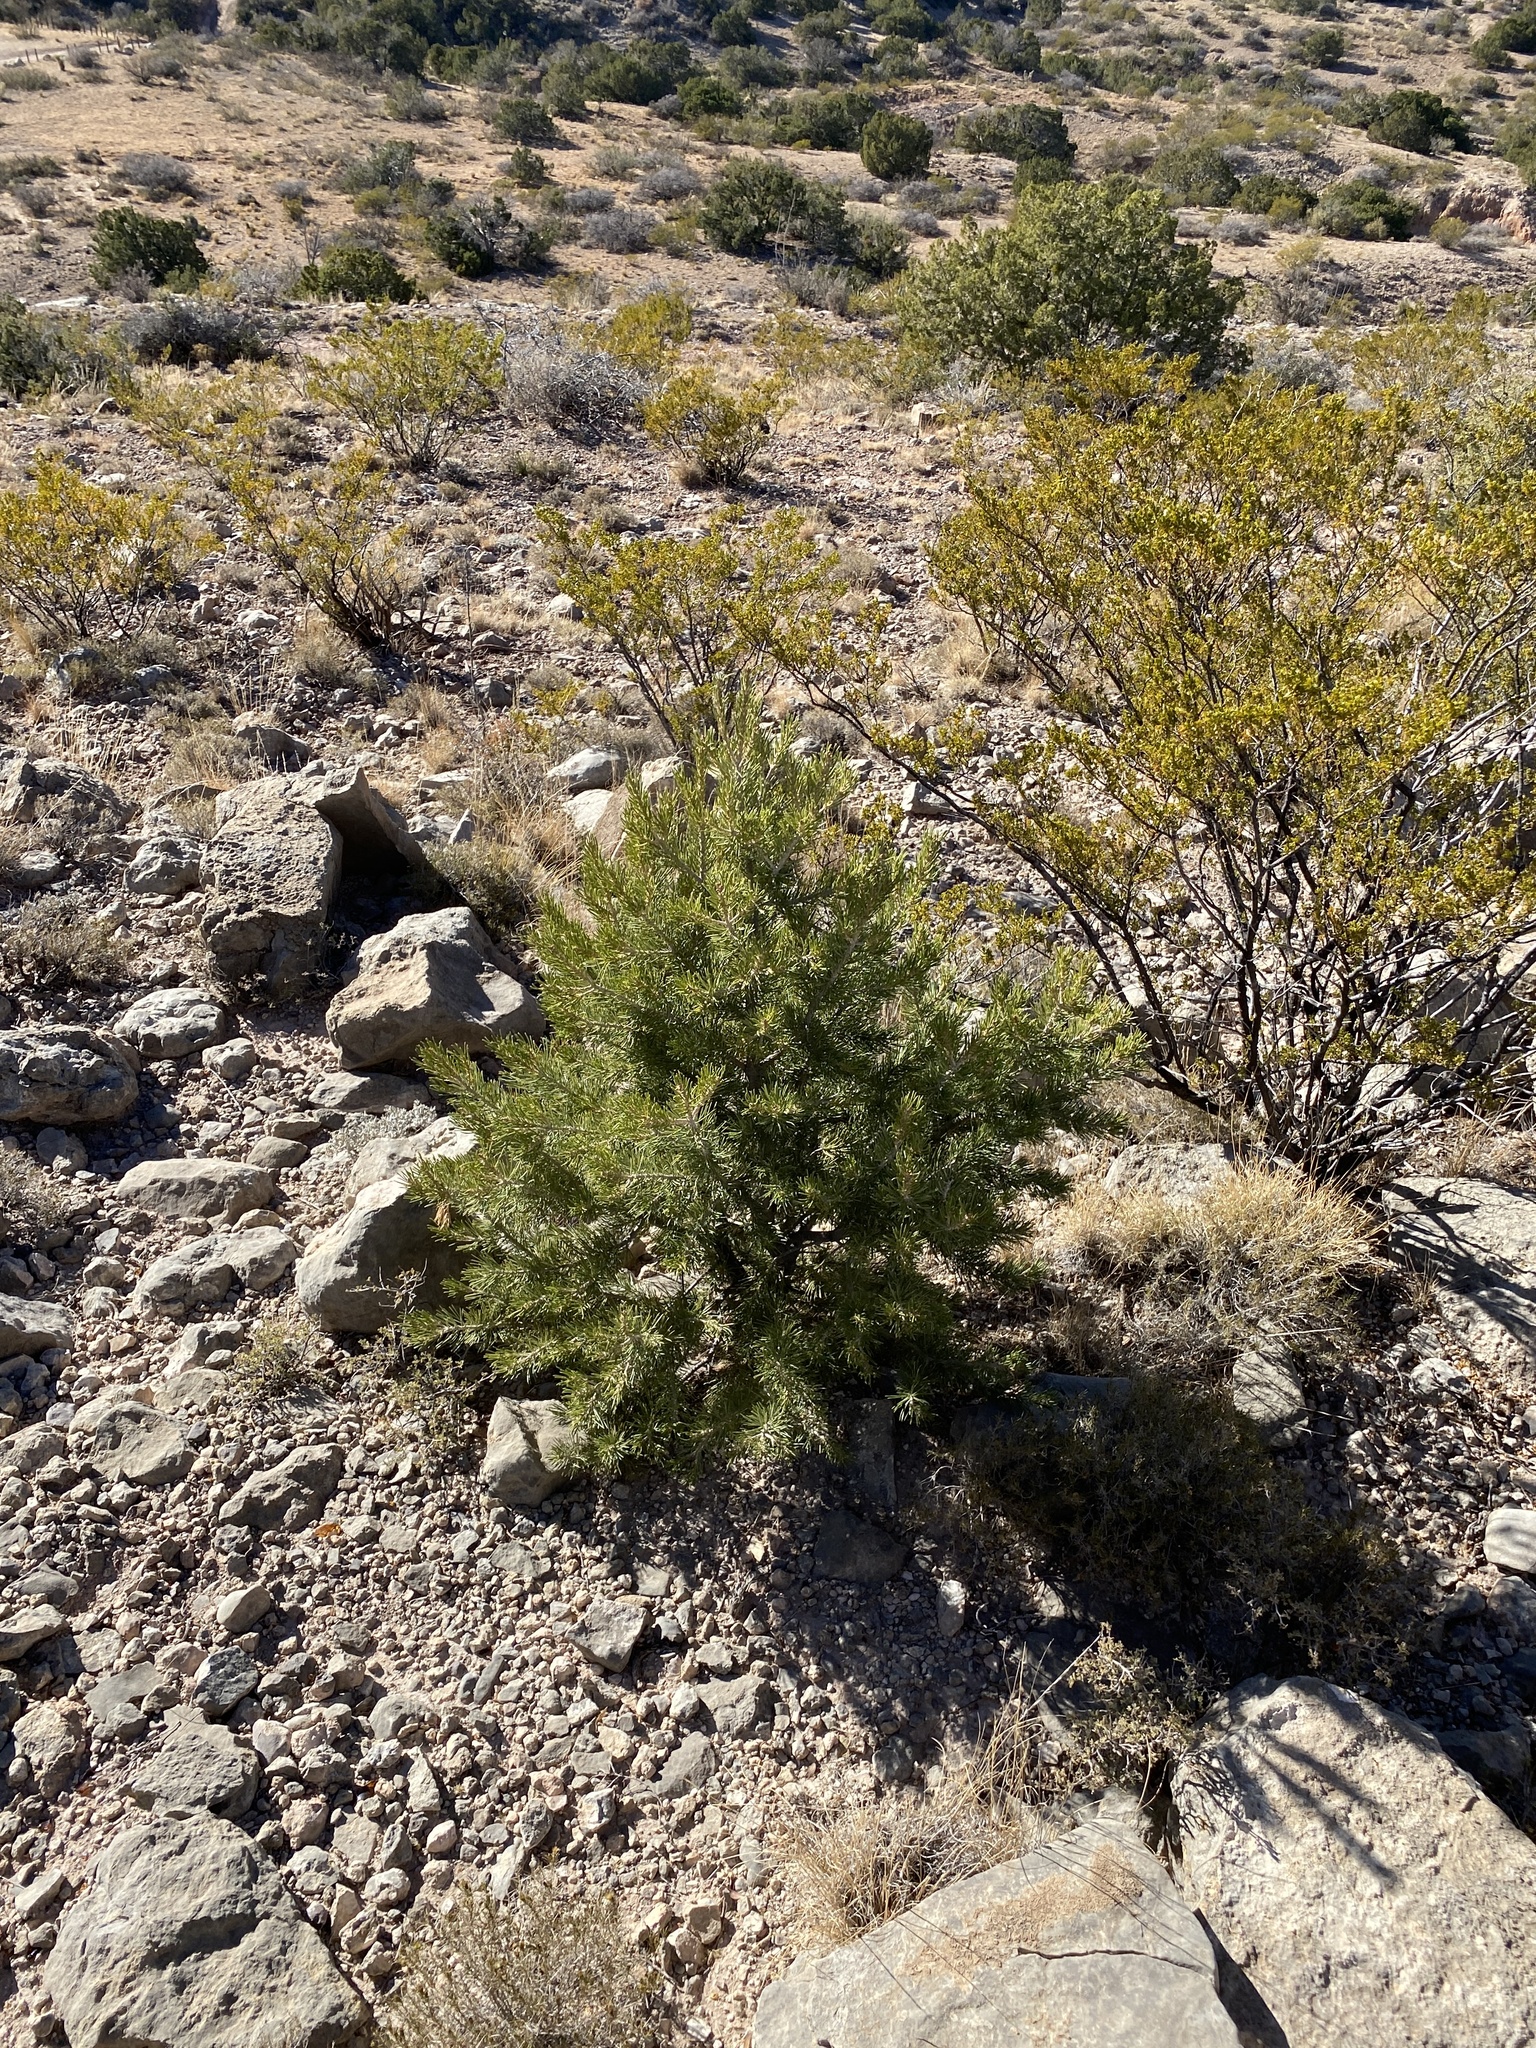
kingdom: Plantae
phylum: Tracheophyta
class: Pinopsida
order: Pinales
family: Pinaceae
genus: Pinus
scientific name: Pinus edulis
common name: Colorado pinyon
